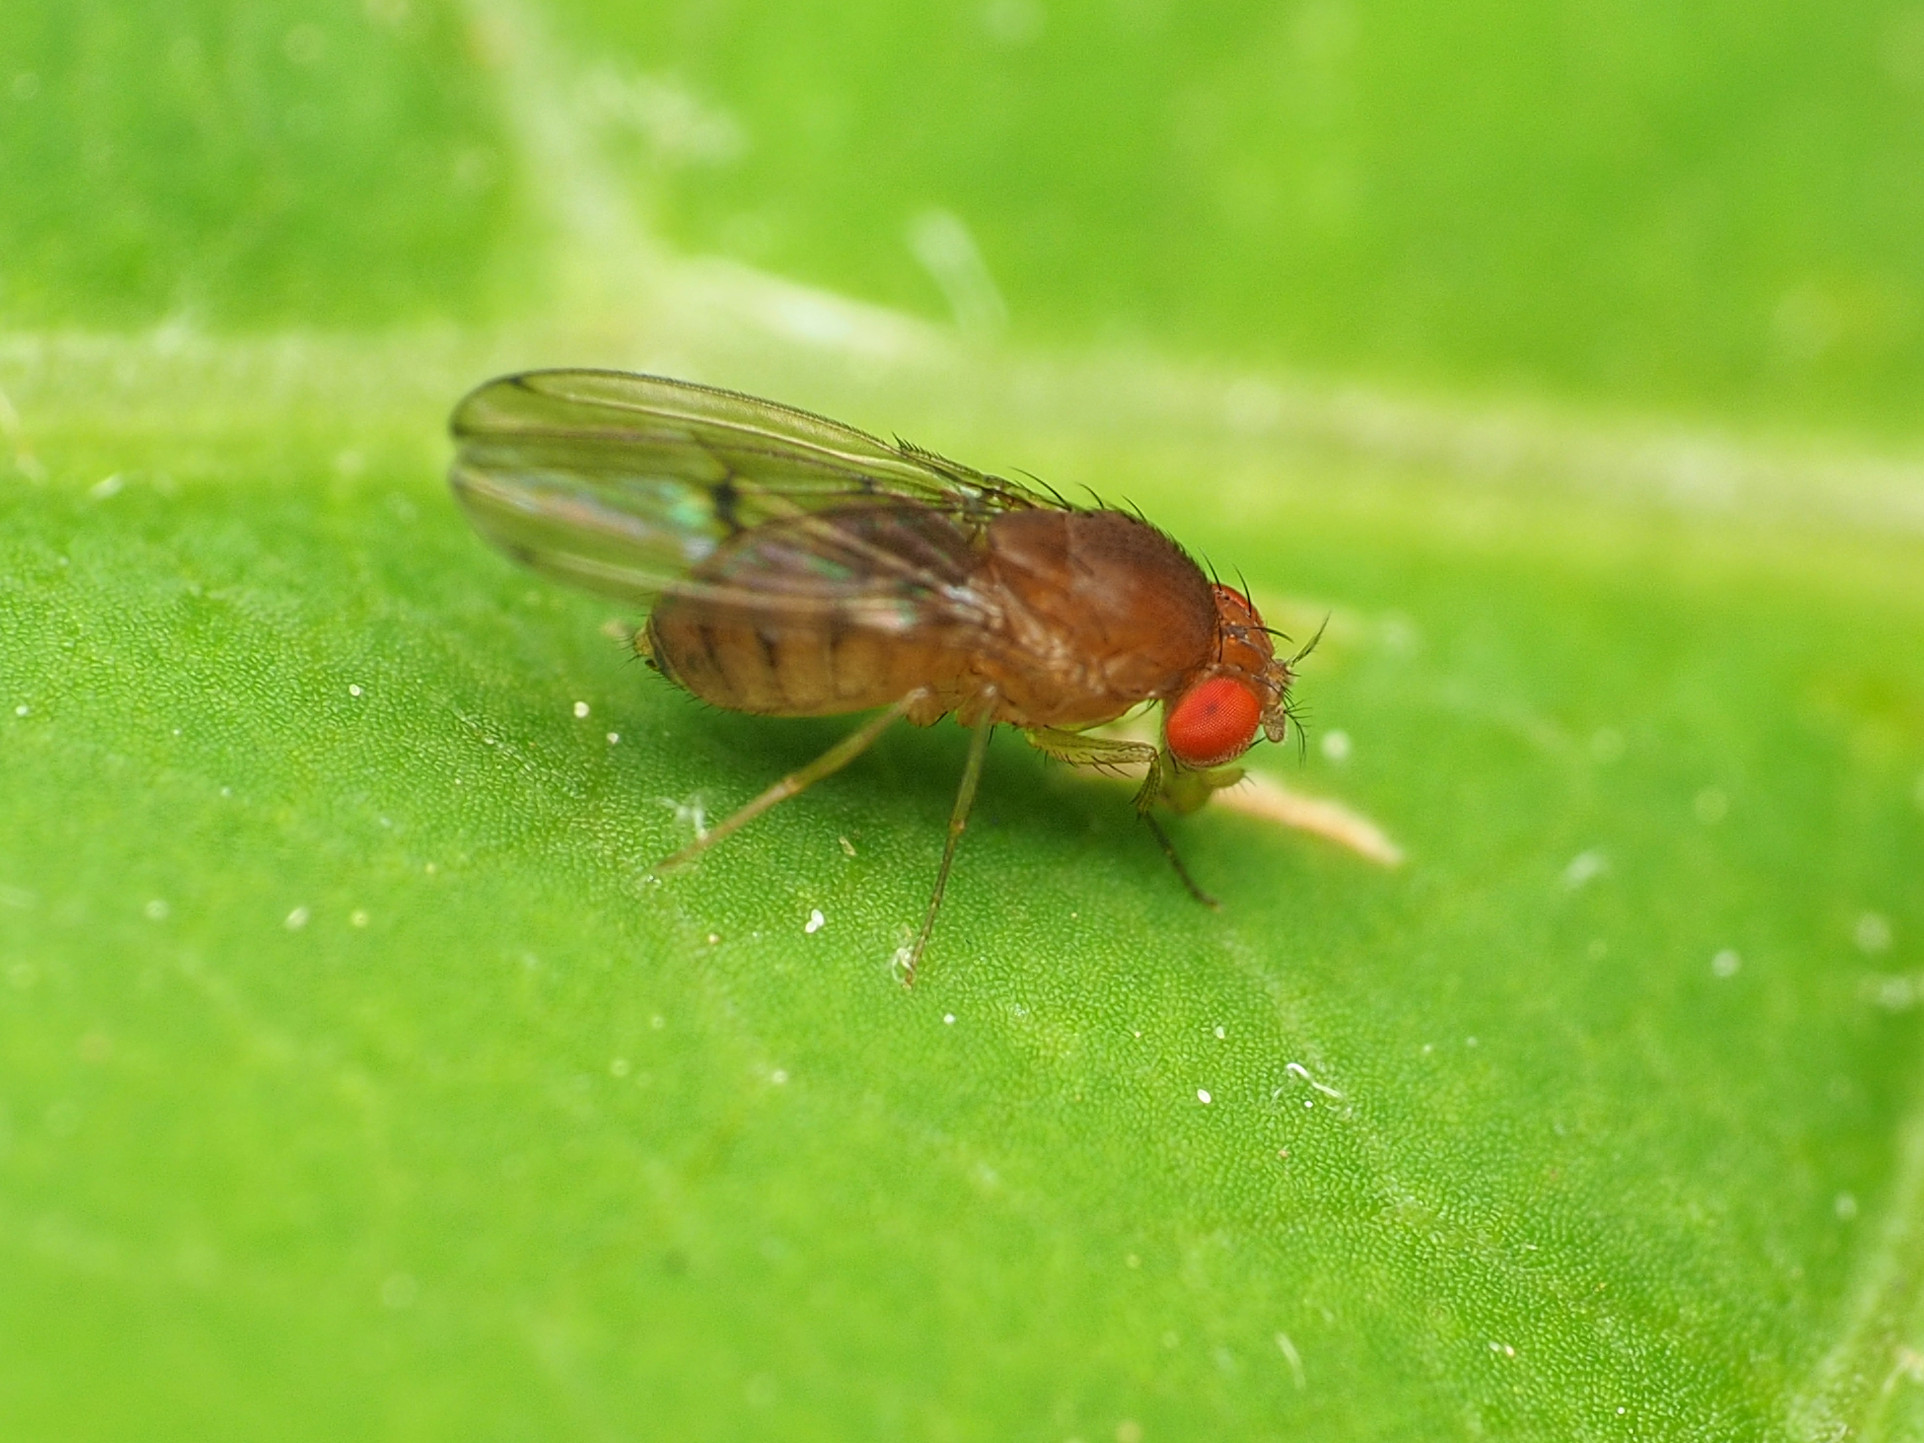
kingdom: Animalia
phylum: Arthropoda
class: Insecta
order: Diptera
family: Drosophilidae
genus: Drosophila
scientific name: Drosophila immigrans
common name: Pomace fly
